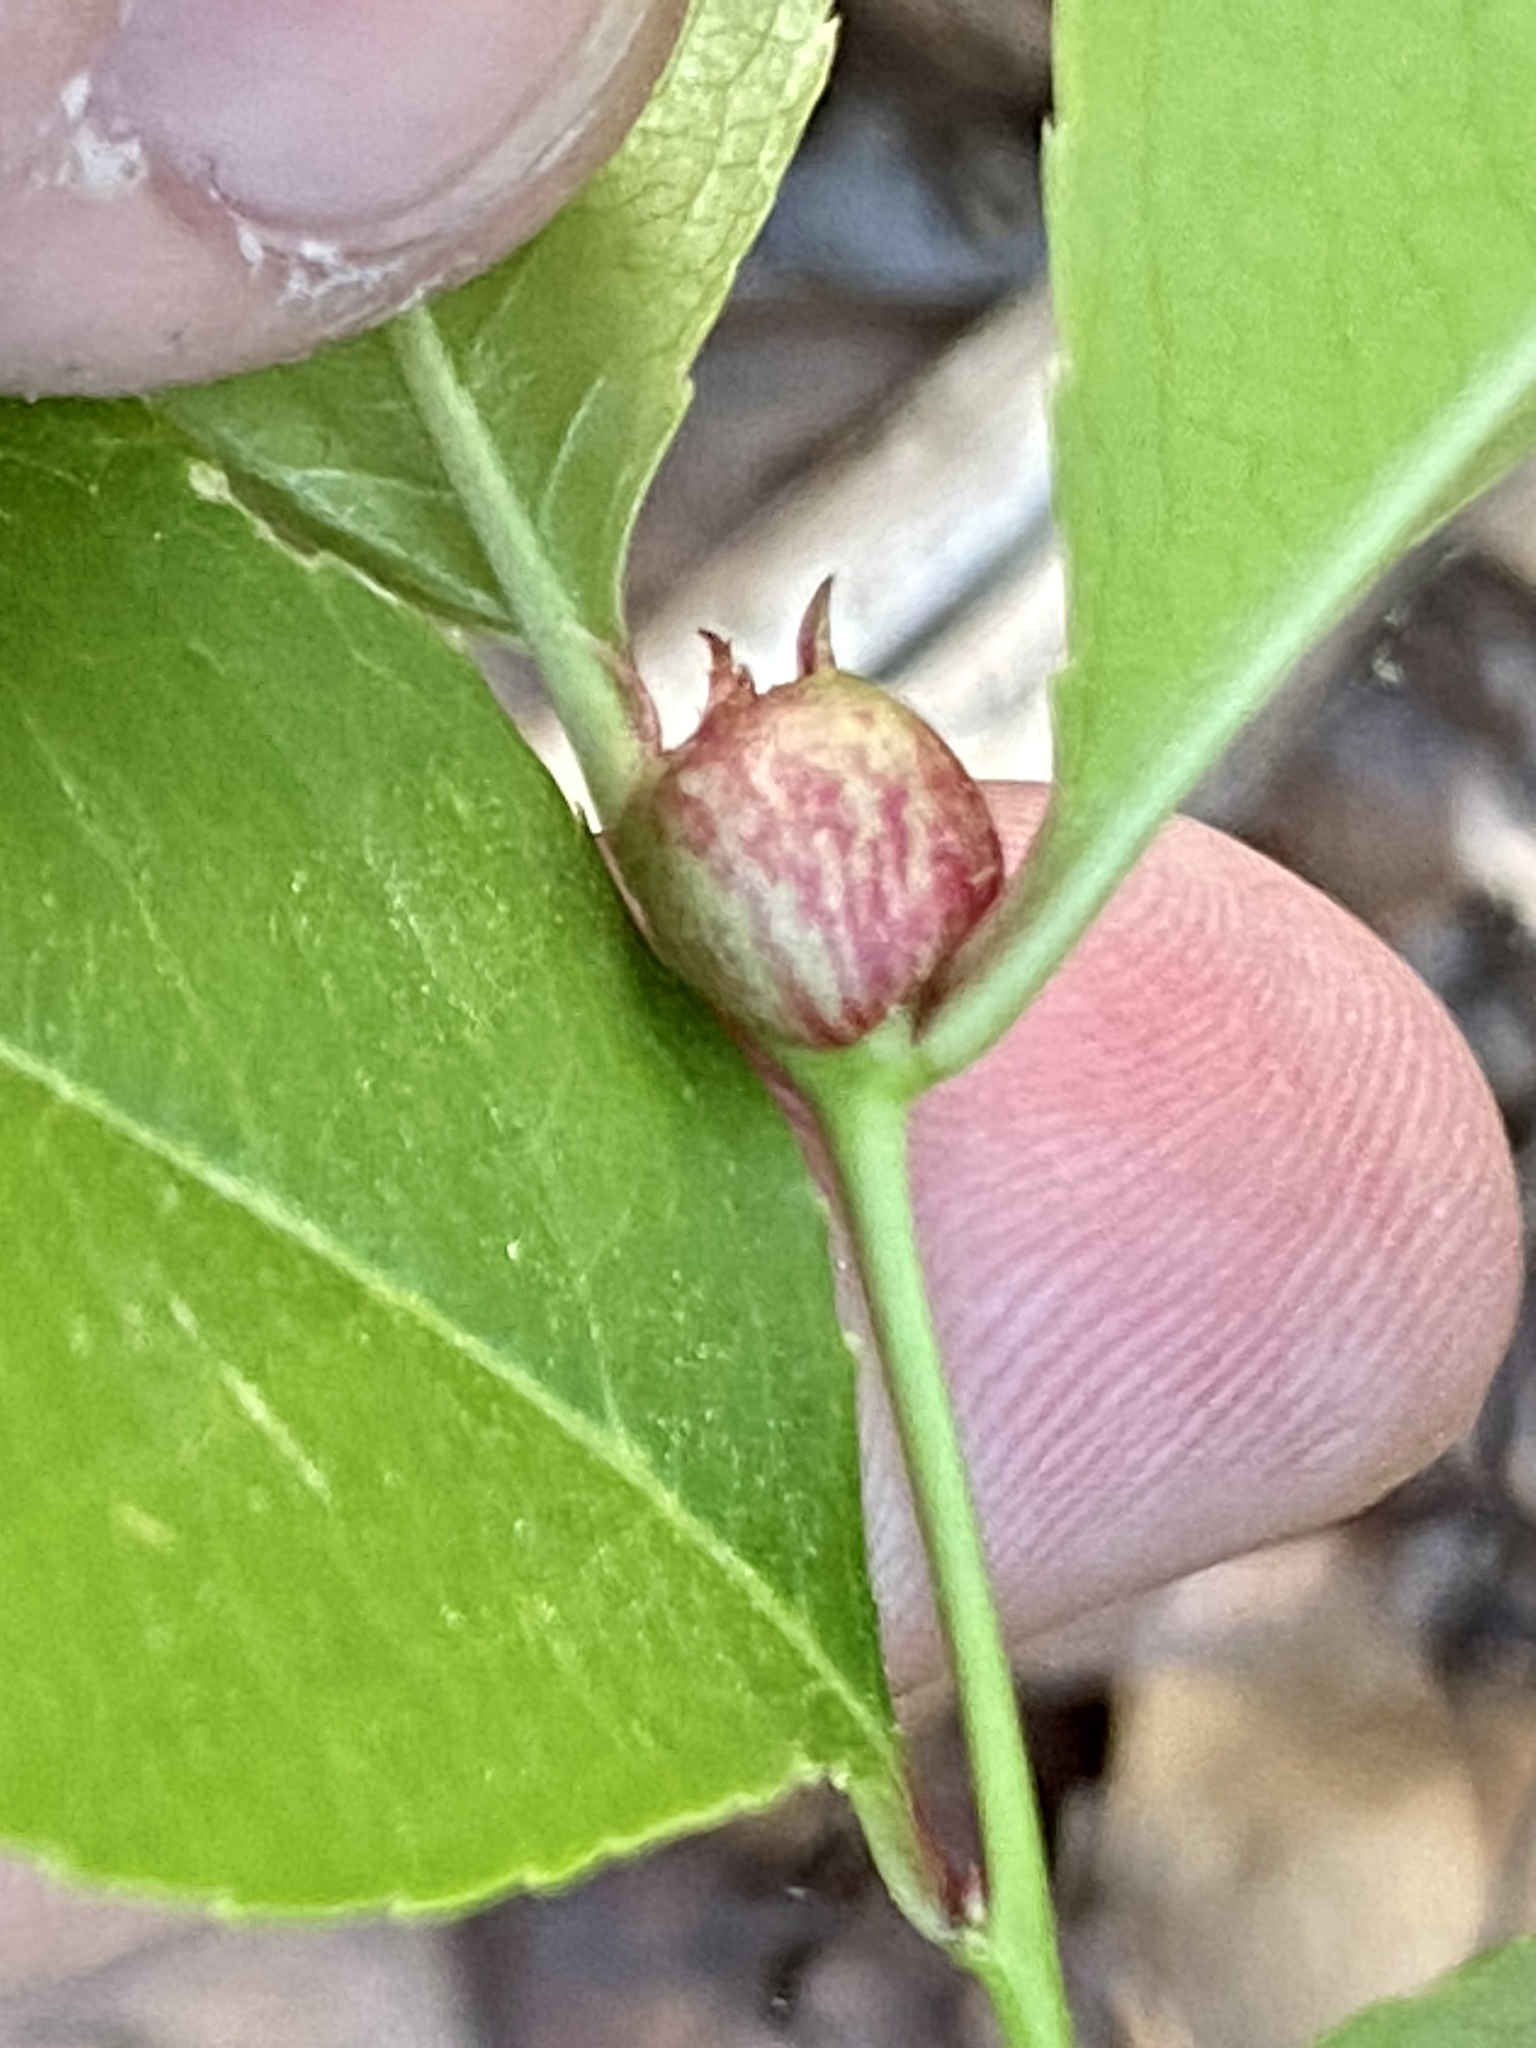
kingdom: Animalia
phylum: Arthropoda
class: Insecta
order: Diptera
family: Cecidomyiidae
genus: Contarinia
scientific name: Contarinia cerasiserotinae
